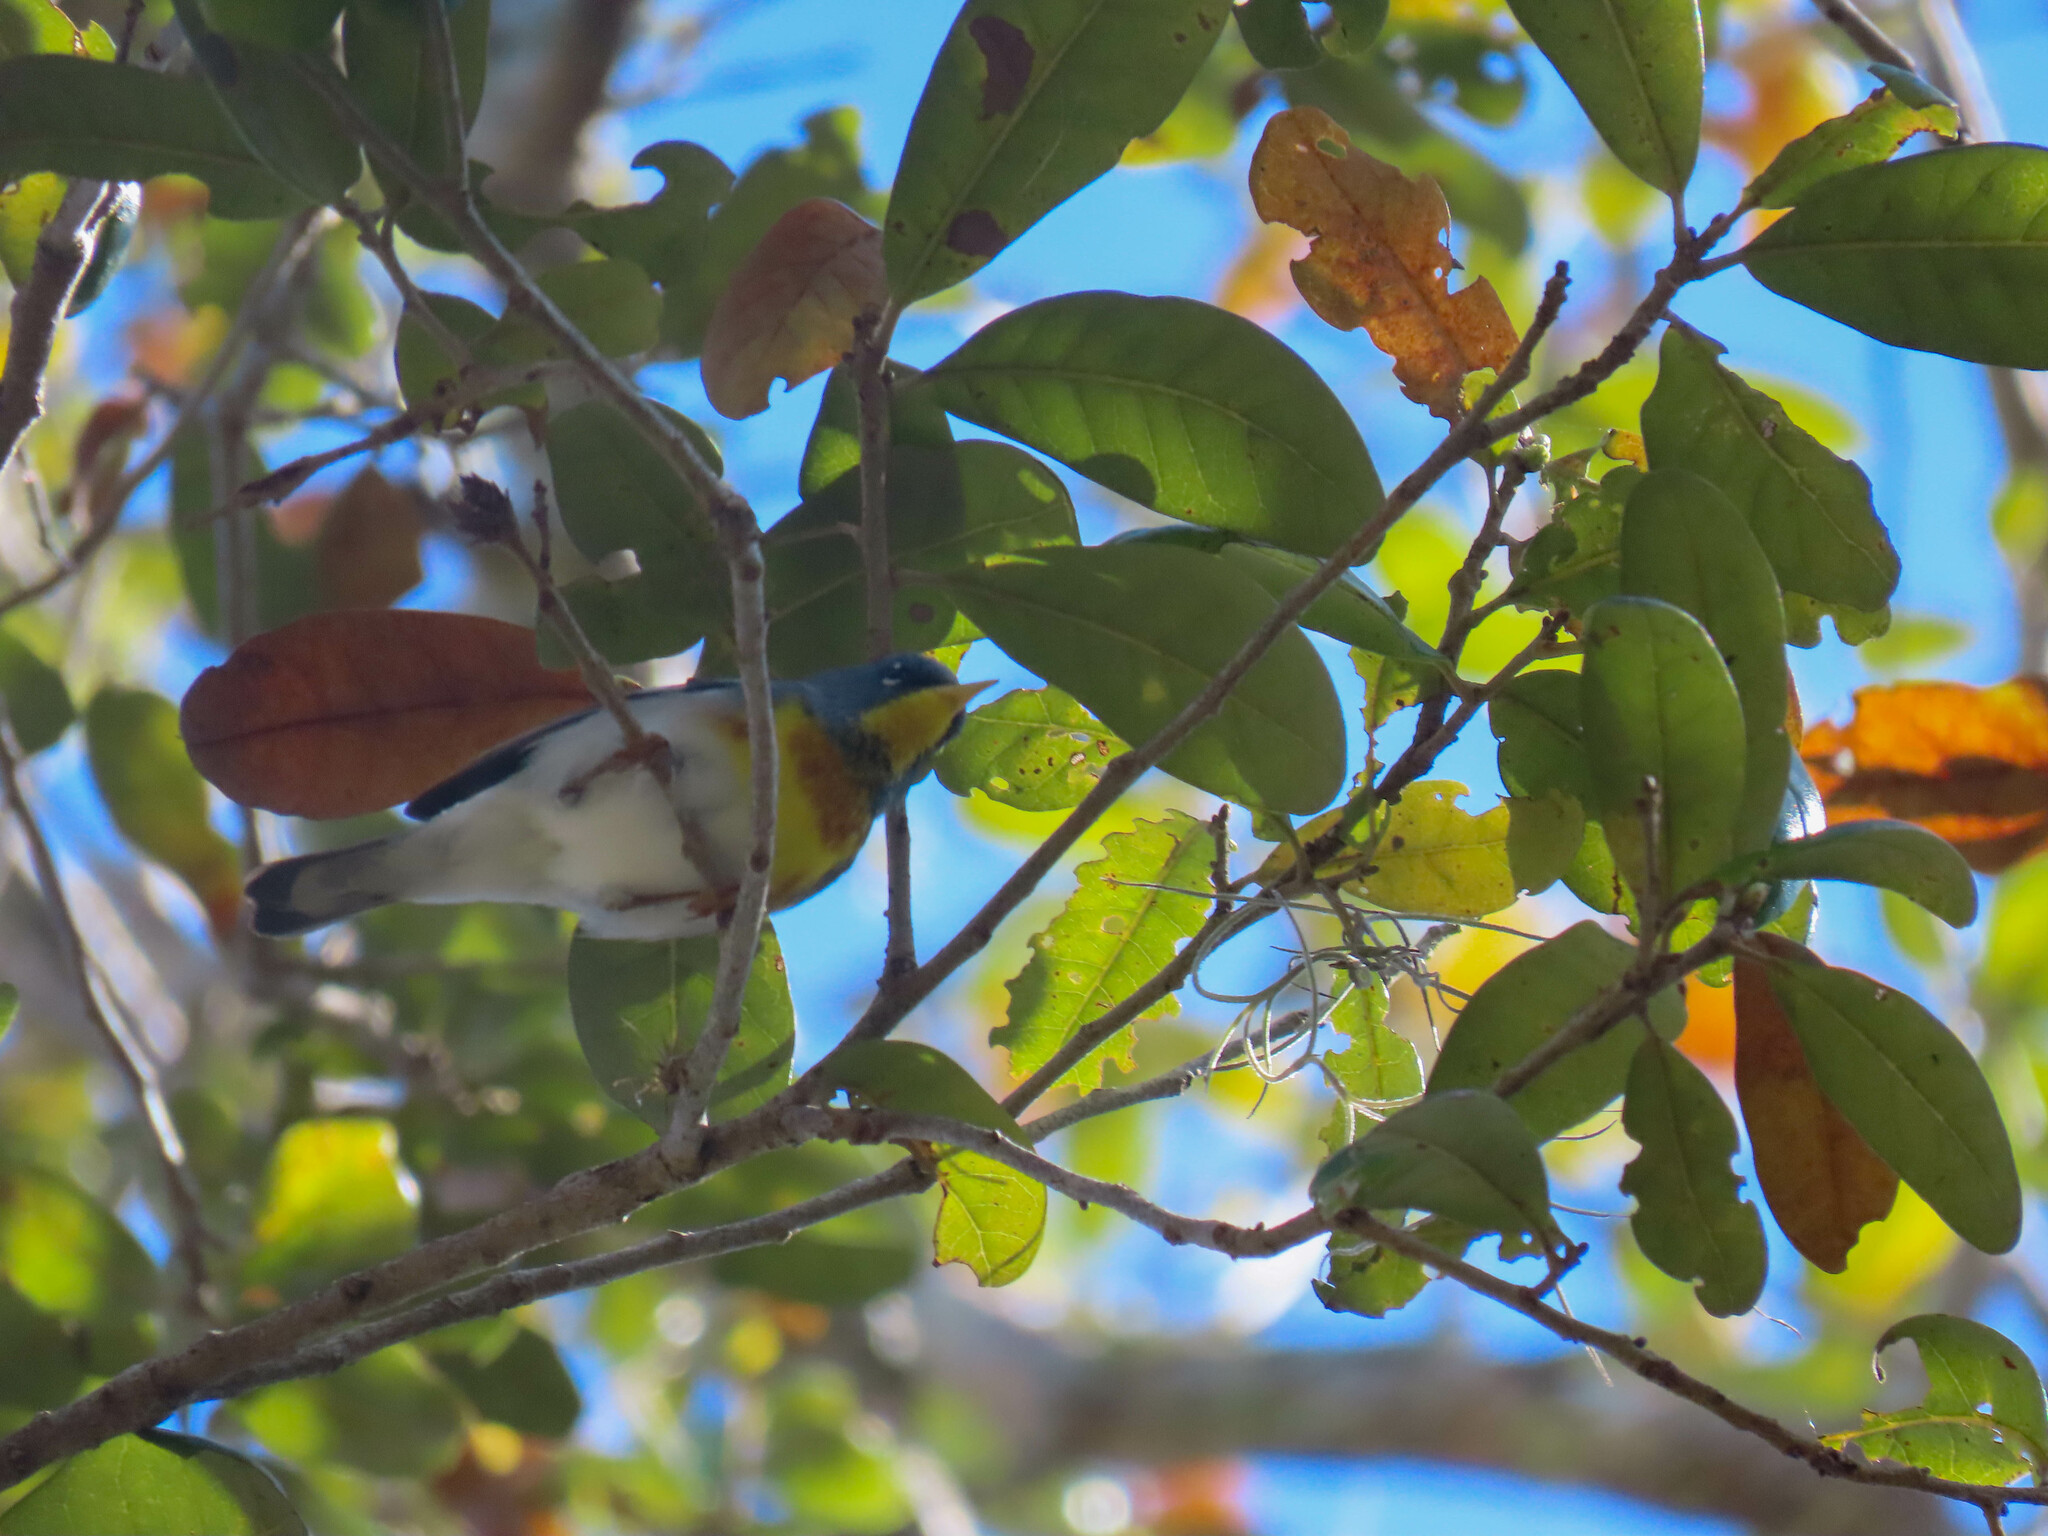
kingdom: Animalia
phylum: Chordata
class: Aves
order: Passeriformes
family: Parulidae
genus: Setophaga
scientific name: Setophaga americana
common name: Northern parula
